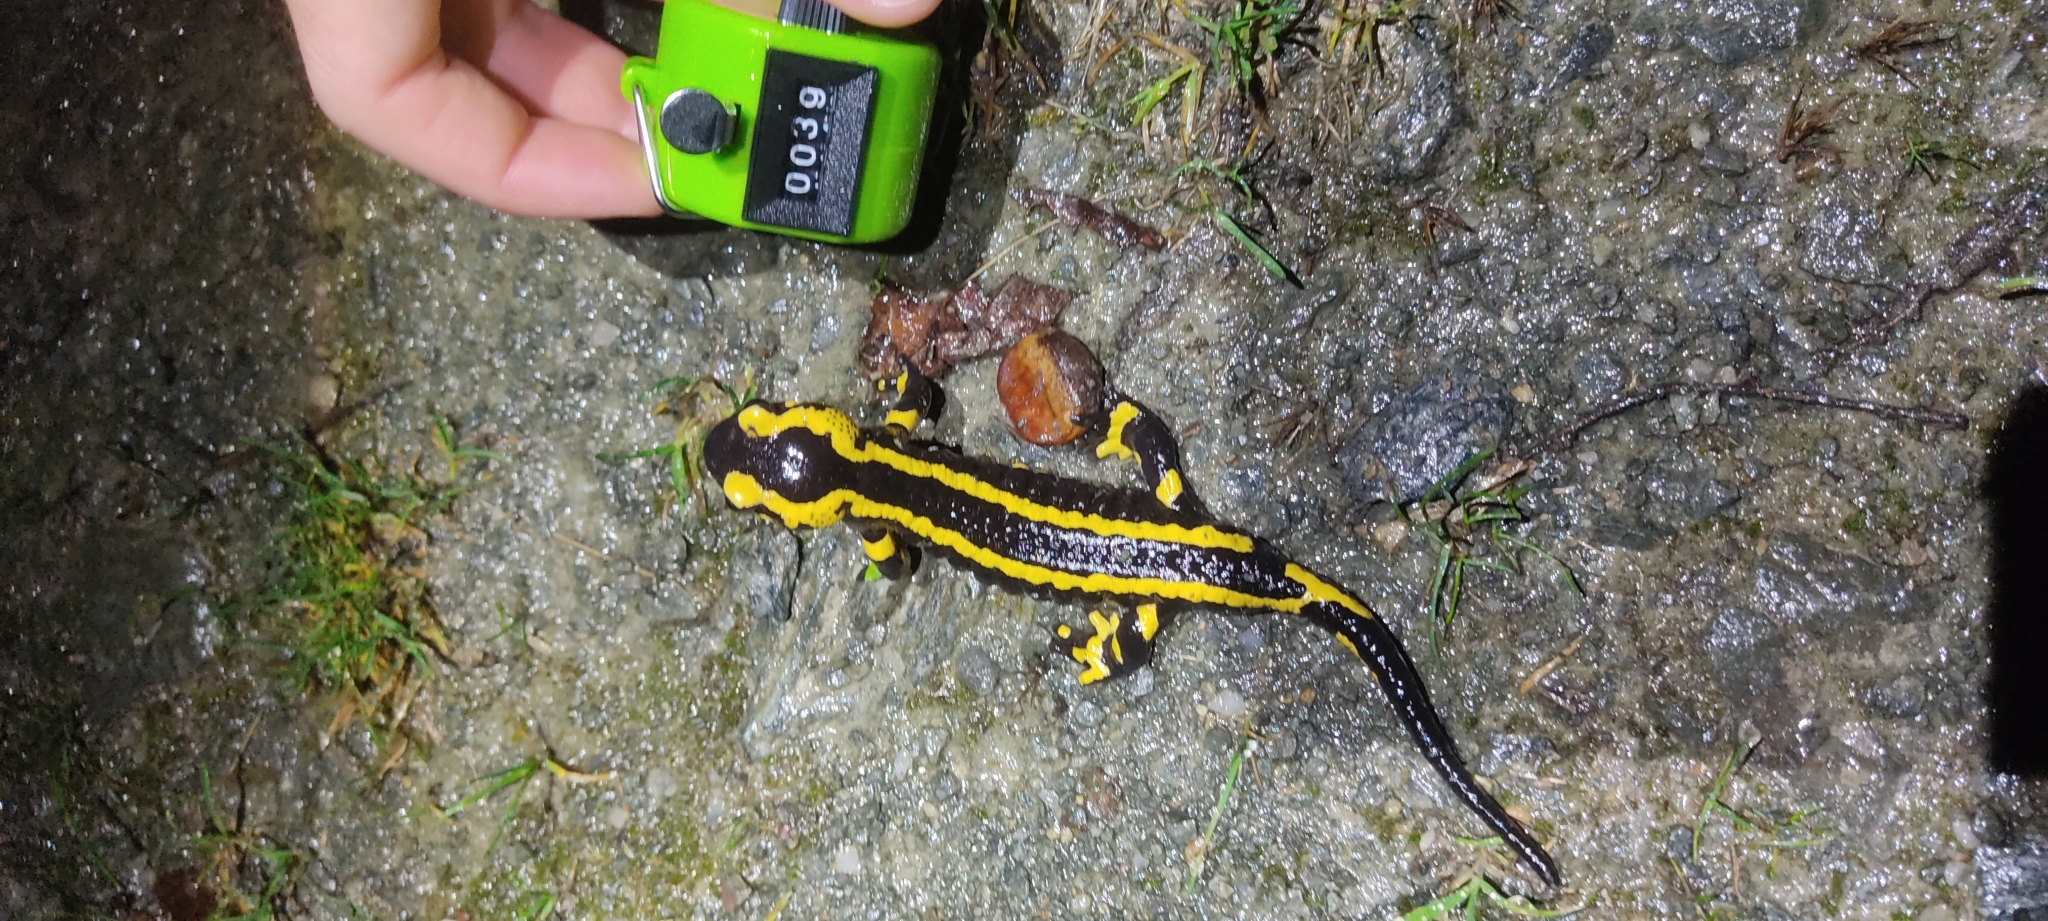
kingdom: Animalia
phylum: Chordata
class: Amphibia
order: Caudata
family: Salamandridae
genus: Salamandra
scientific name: Salamandra salamandra
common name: Fire salamander
